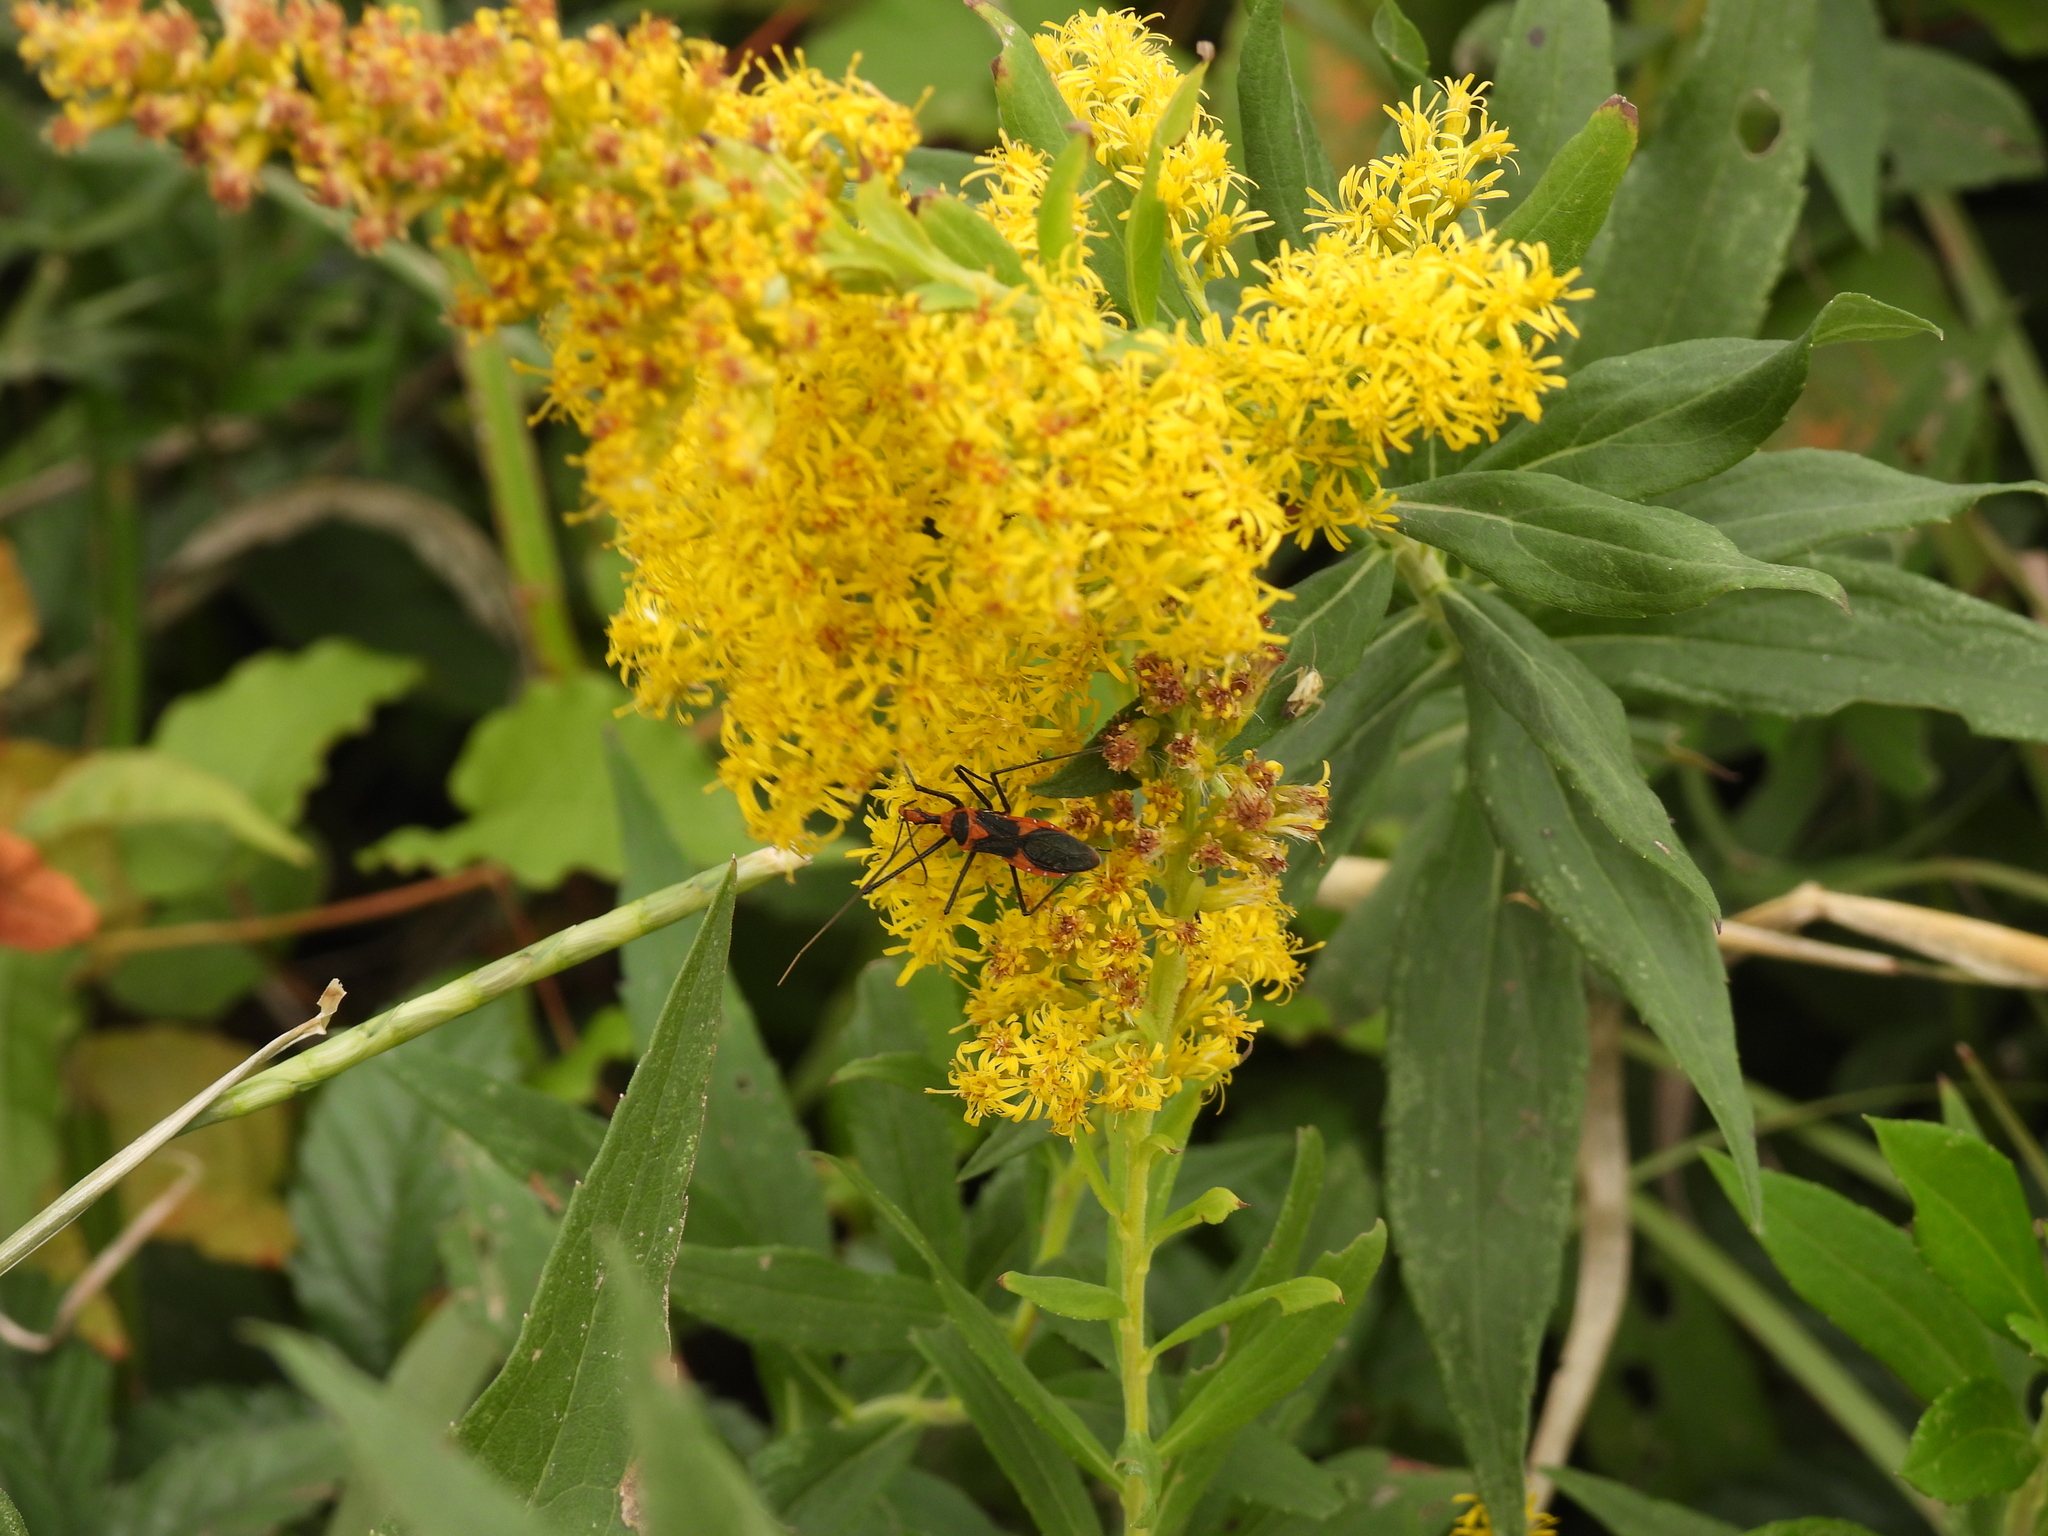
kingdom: Animalia
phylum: Arthropoda
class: Insecta
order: Hemiptera
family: Reduviidae
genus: Zelus
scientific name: Zelus longipes
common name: Milkweed assassin bug
